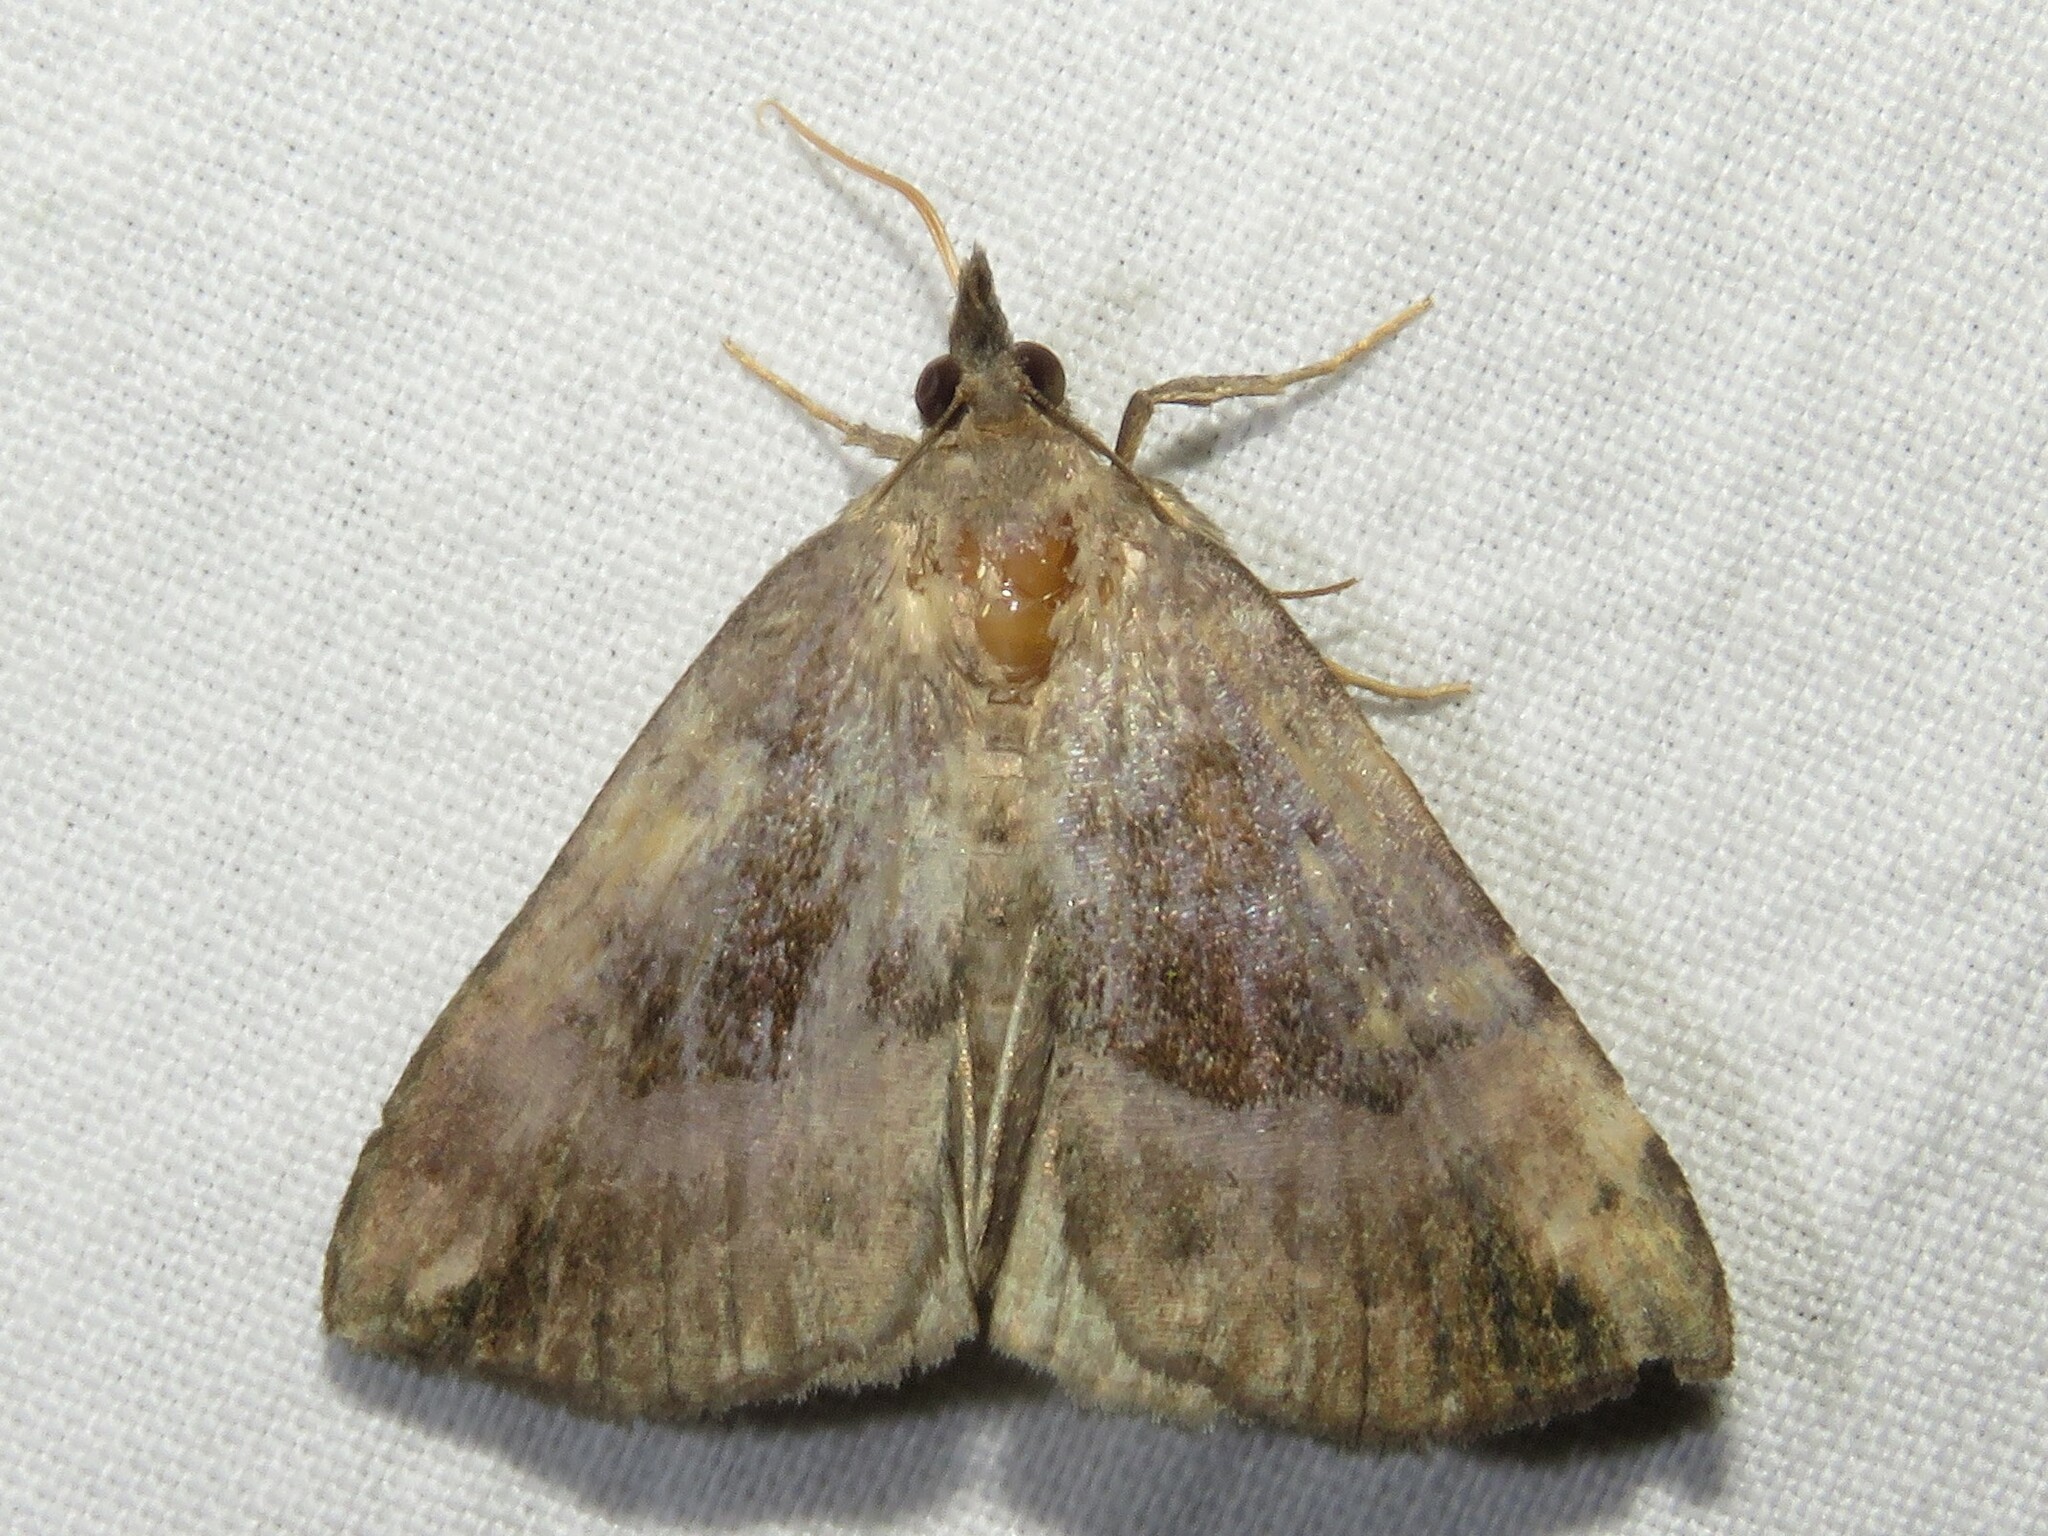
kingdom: Animalia
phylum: Arthropoda
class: Insecta
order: Lepidoptera
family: Erebidae
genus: Hypena
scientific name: Hypena madefactalis
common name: Gray-edged snout
